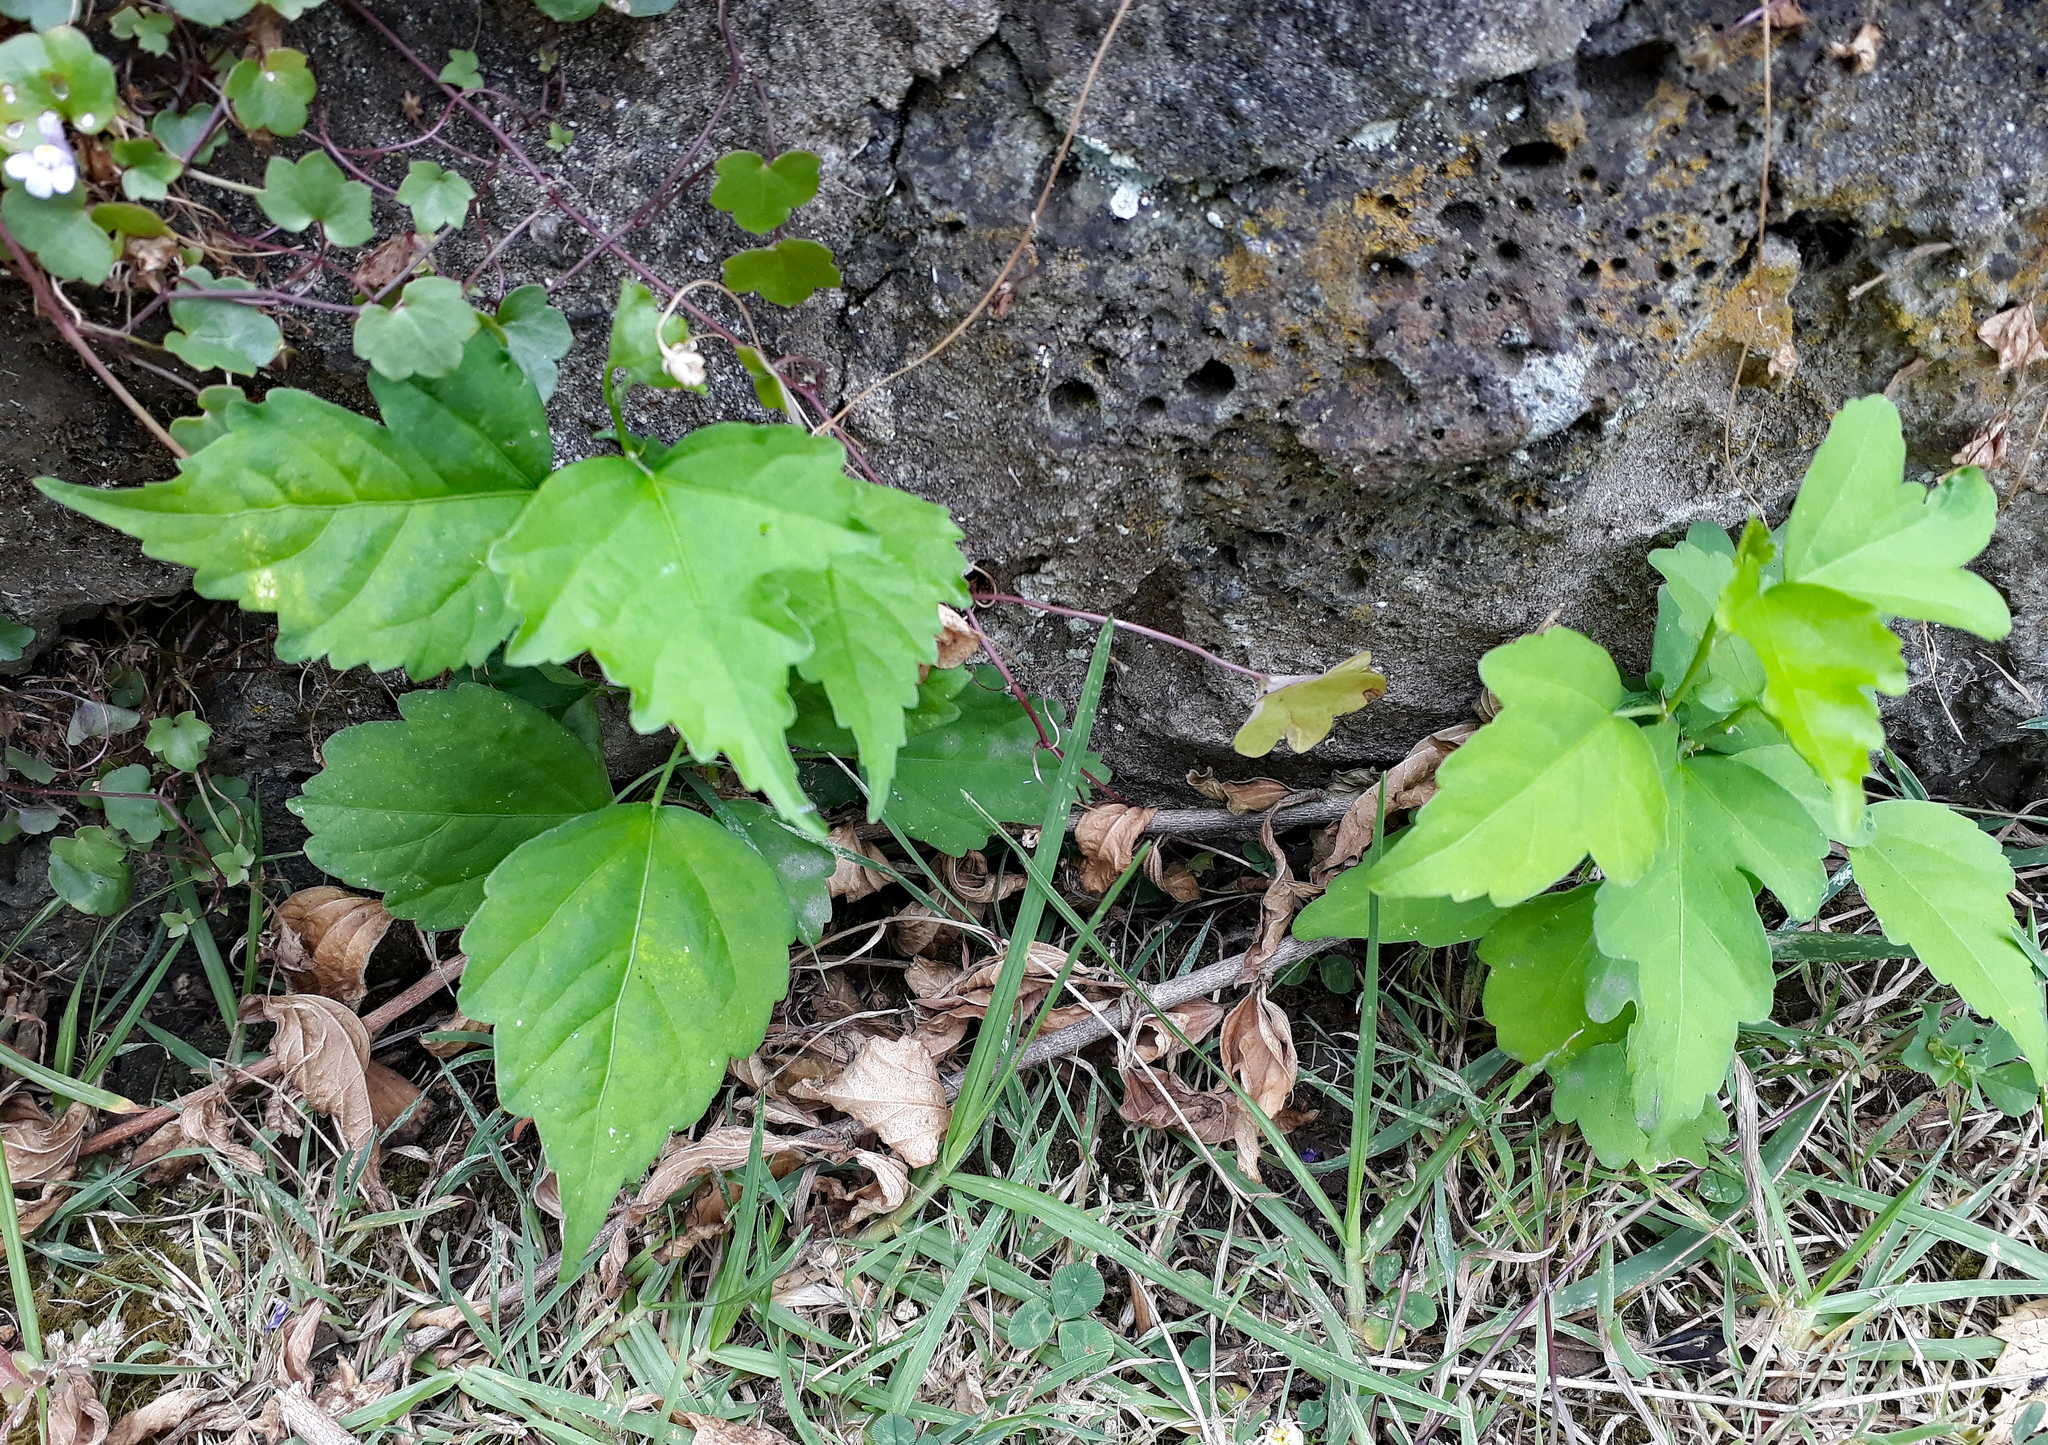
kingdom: Plantae
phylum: Tracheophyta
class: Magnoliopsida
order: Malvales
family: Malvaceae
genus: Hibiscus
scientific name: Hibiscus syriacus
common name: Syrian ketmia
